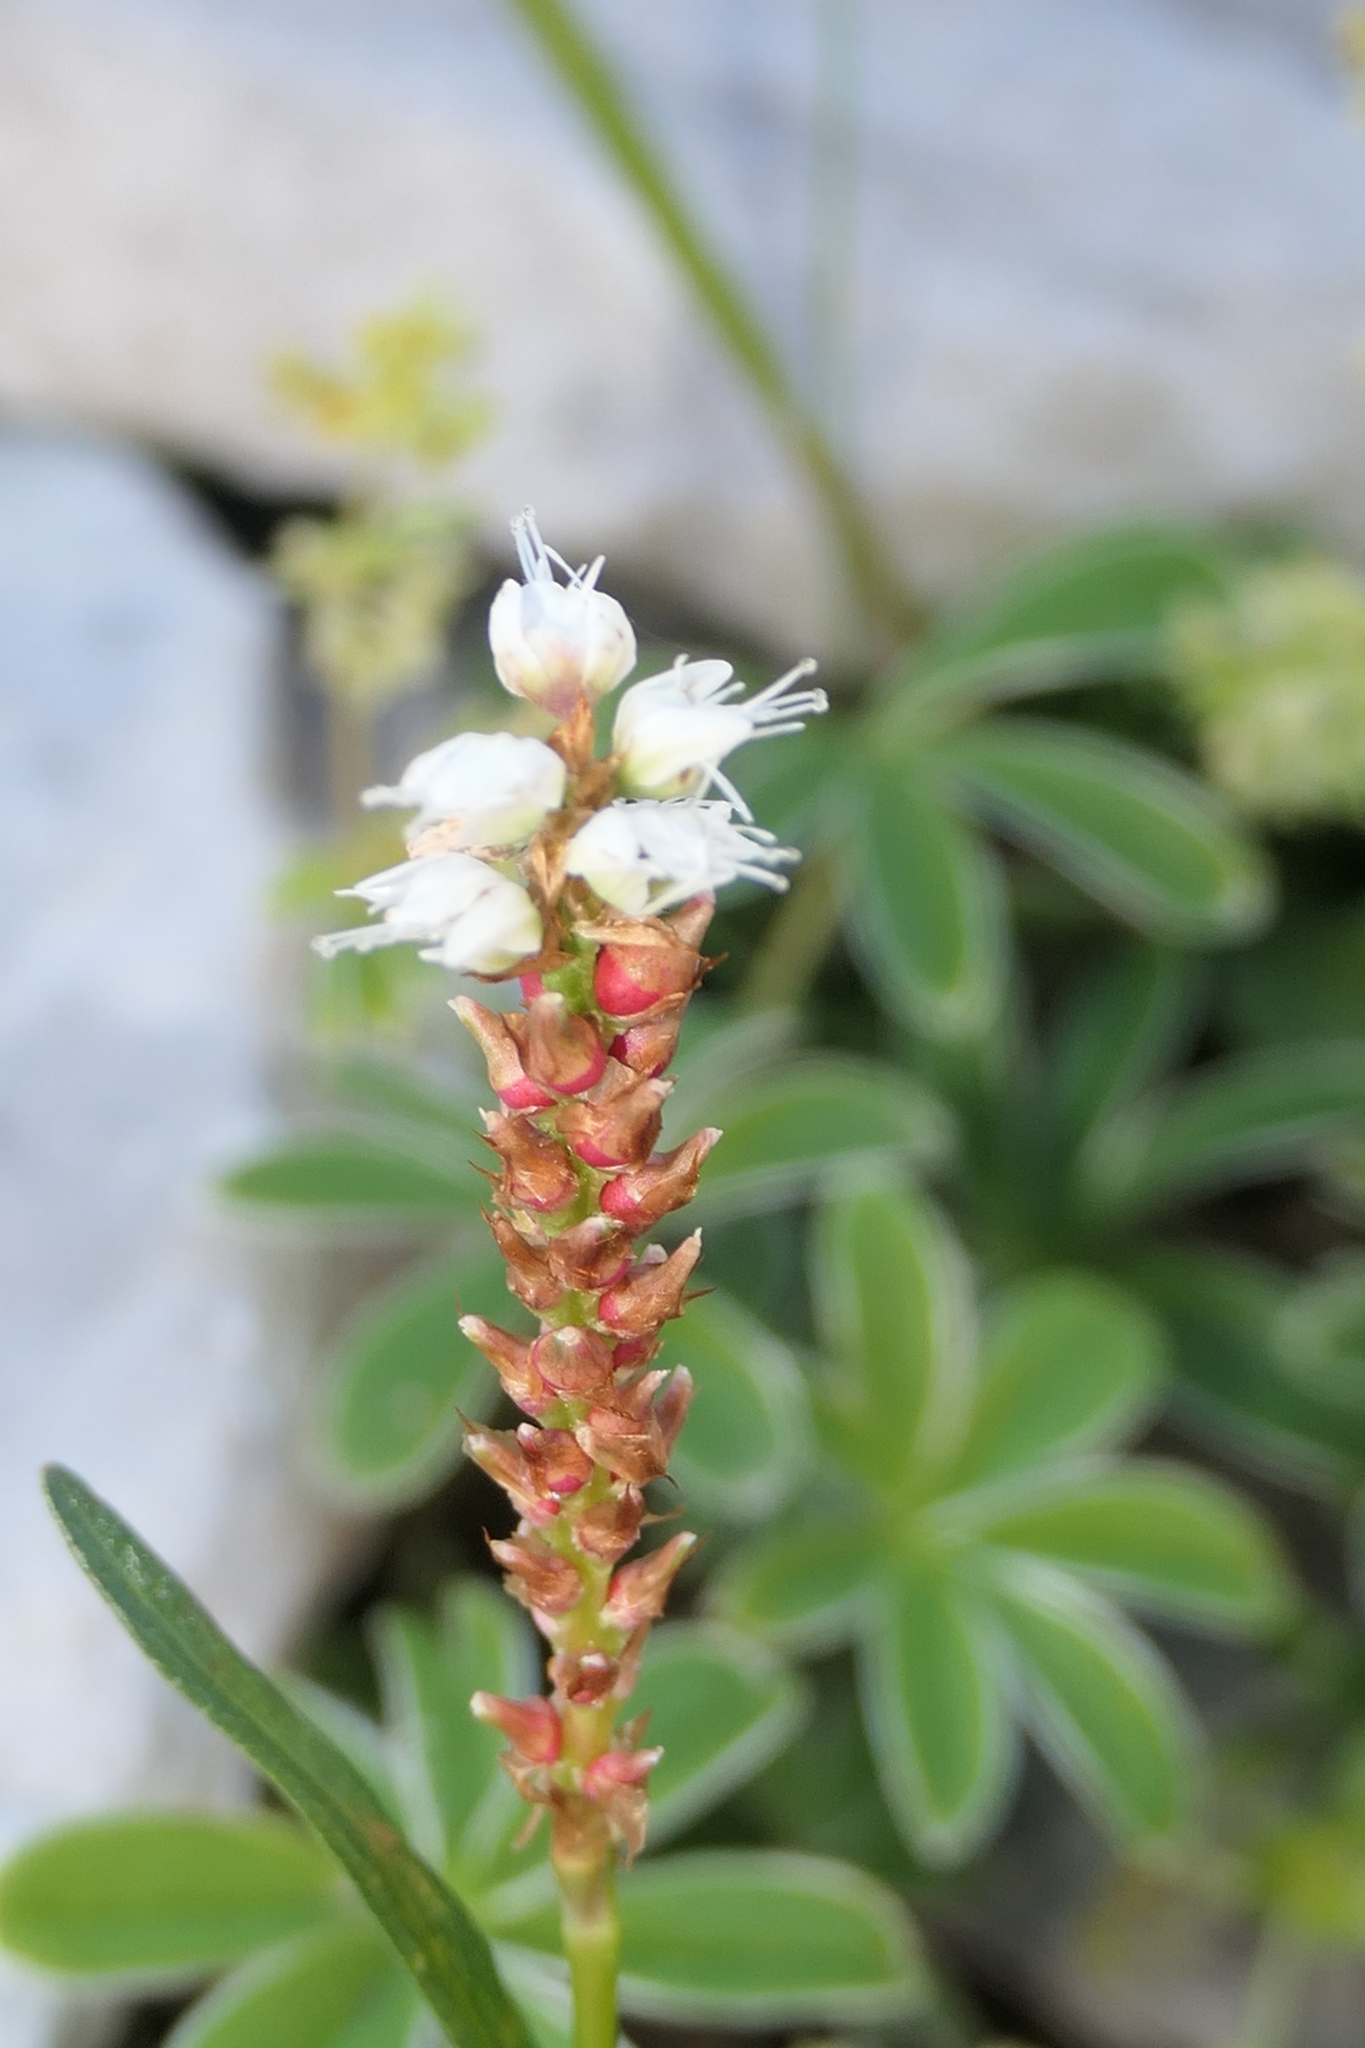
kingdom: Plantae
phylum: Tracheophyta
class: Magnoliopsida
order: Caryophyllales
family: Polygonaceae
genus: Bistorta
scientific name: Bistorta vivipara
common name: Alpine bistort
